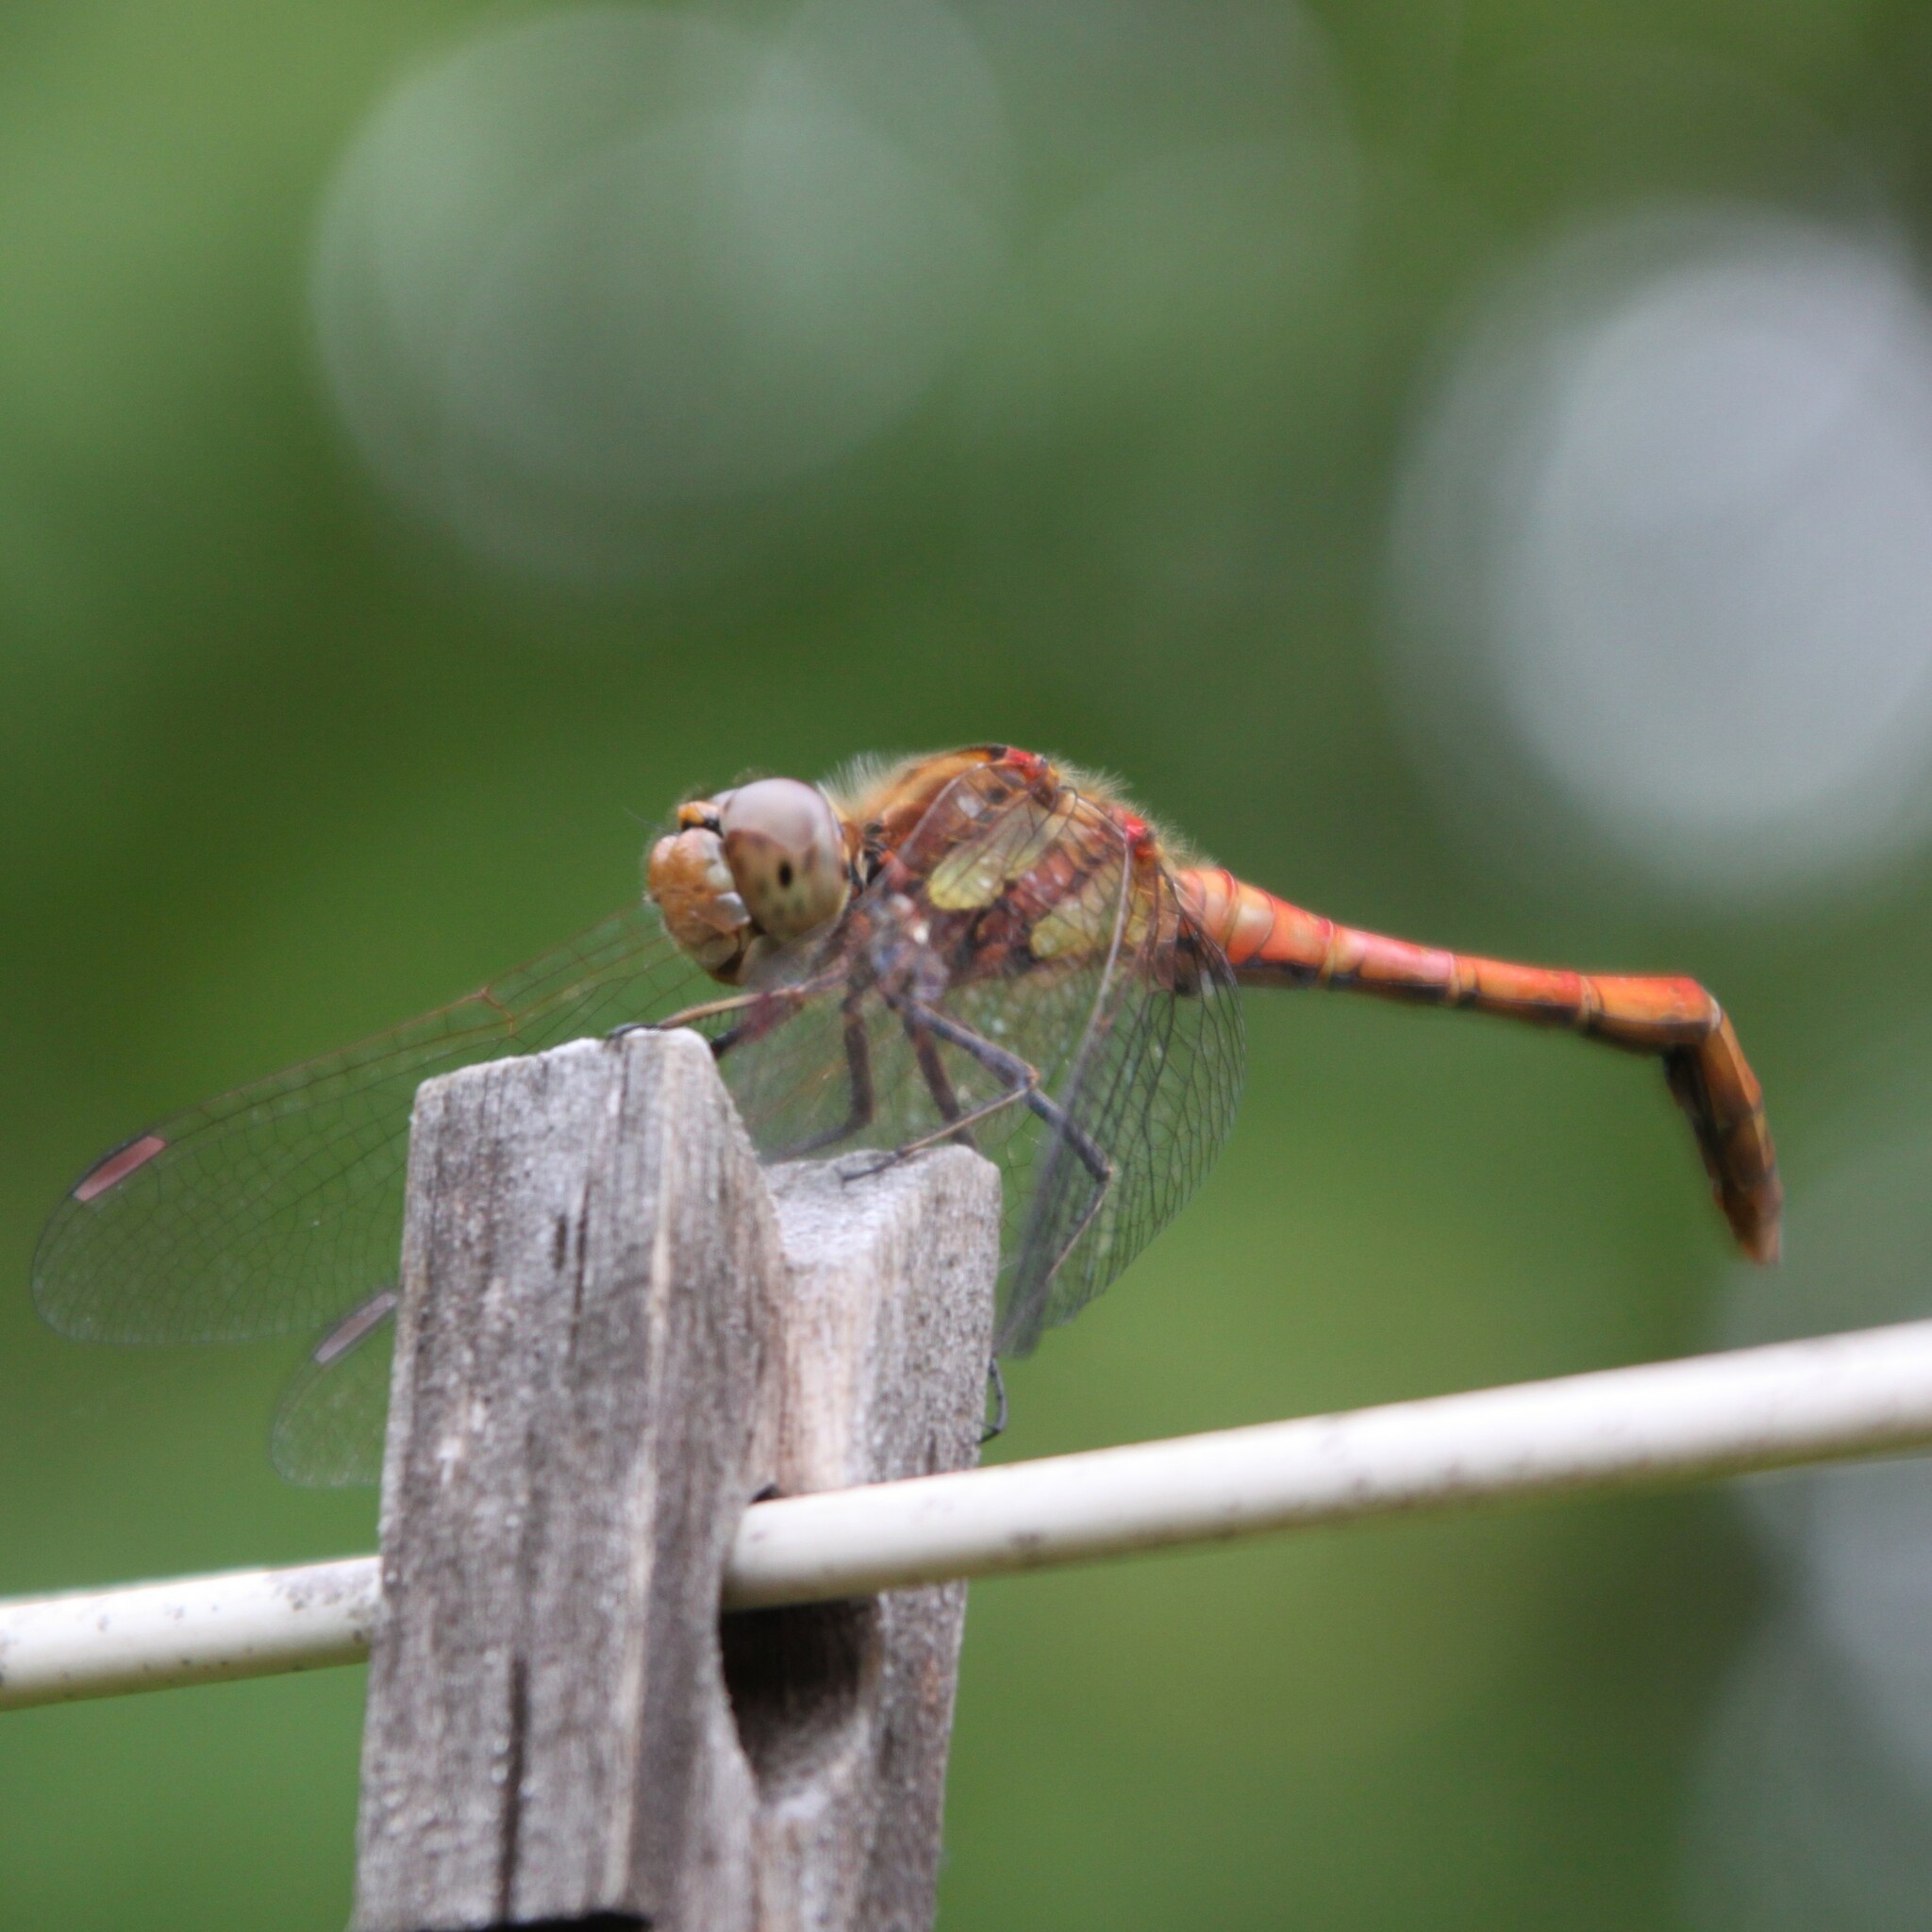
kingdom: Animalia
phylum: Arthropoda
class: Insecta
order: Odonata
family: Libellulidae
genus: Sympetrum
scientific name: Sympetrum striolatum
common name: Common darter
